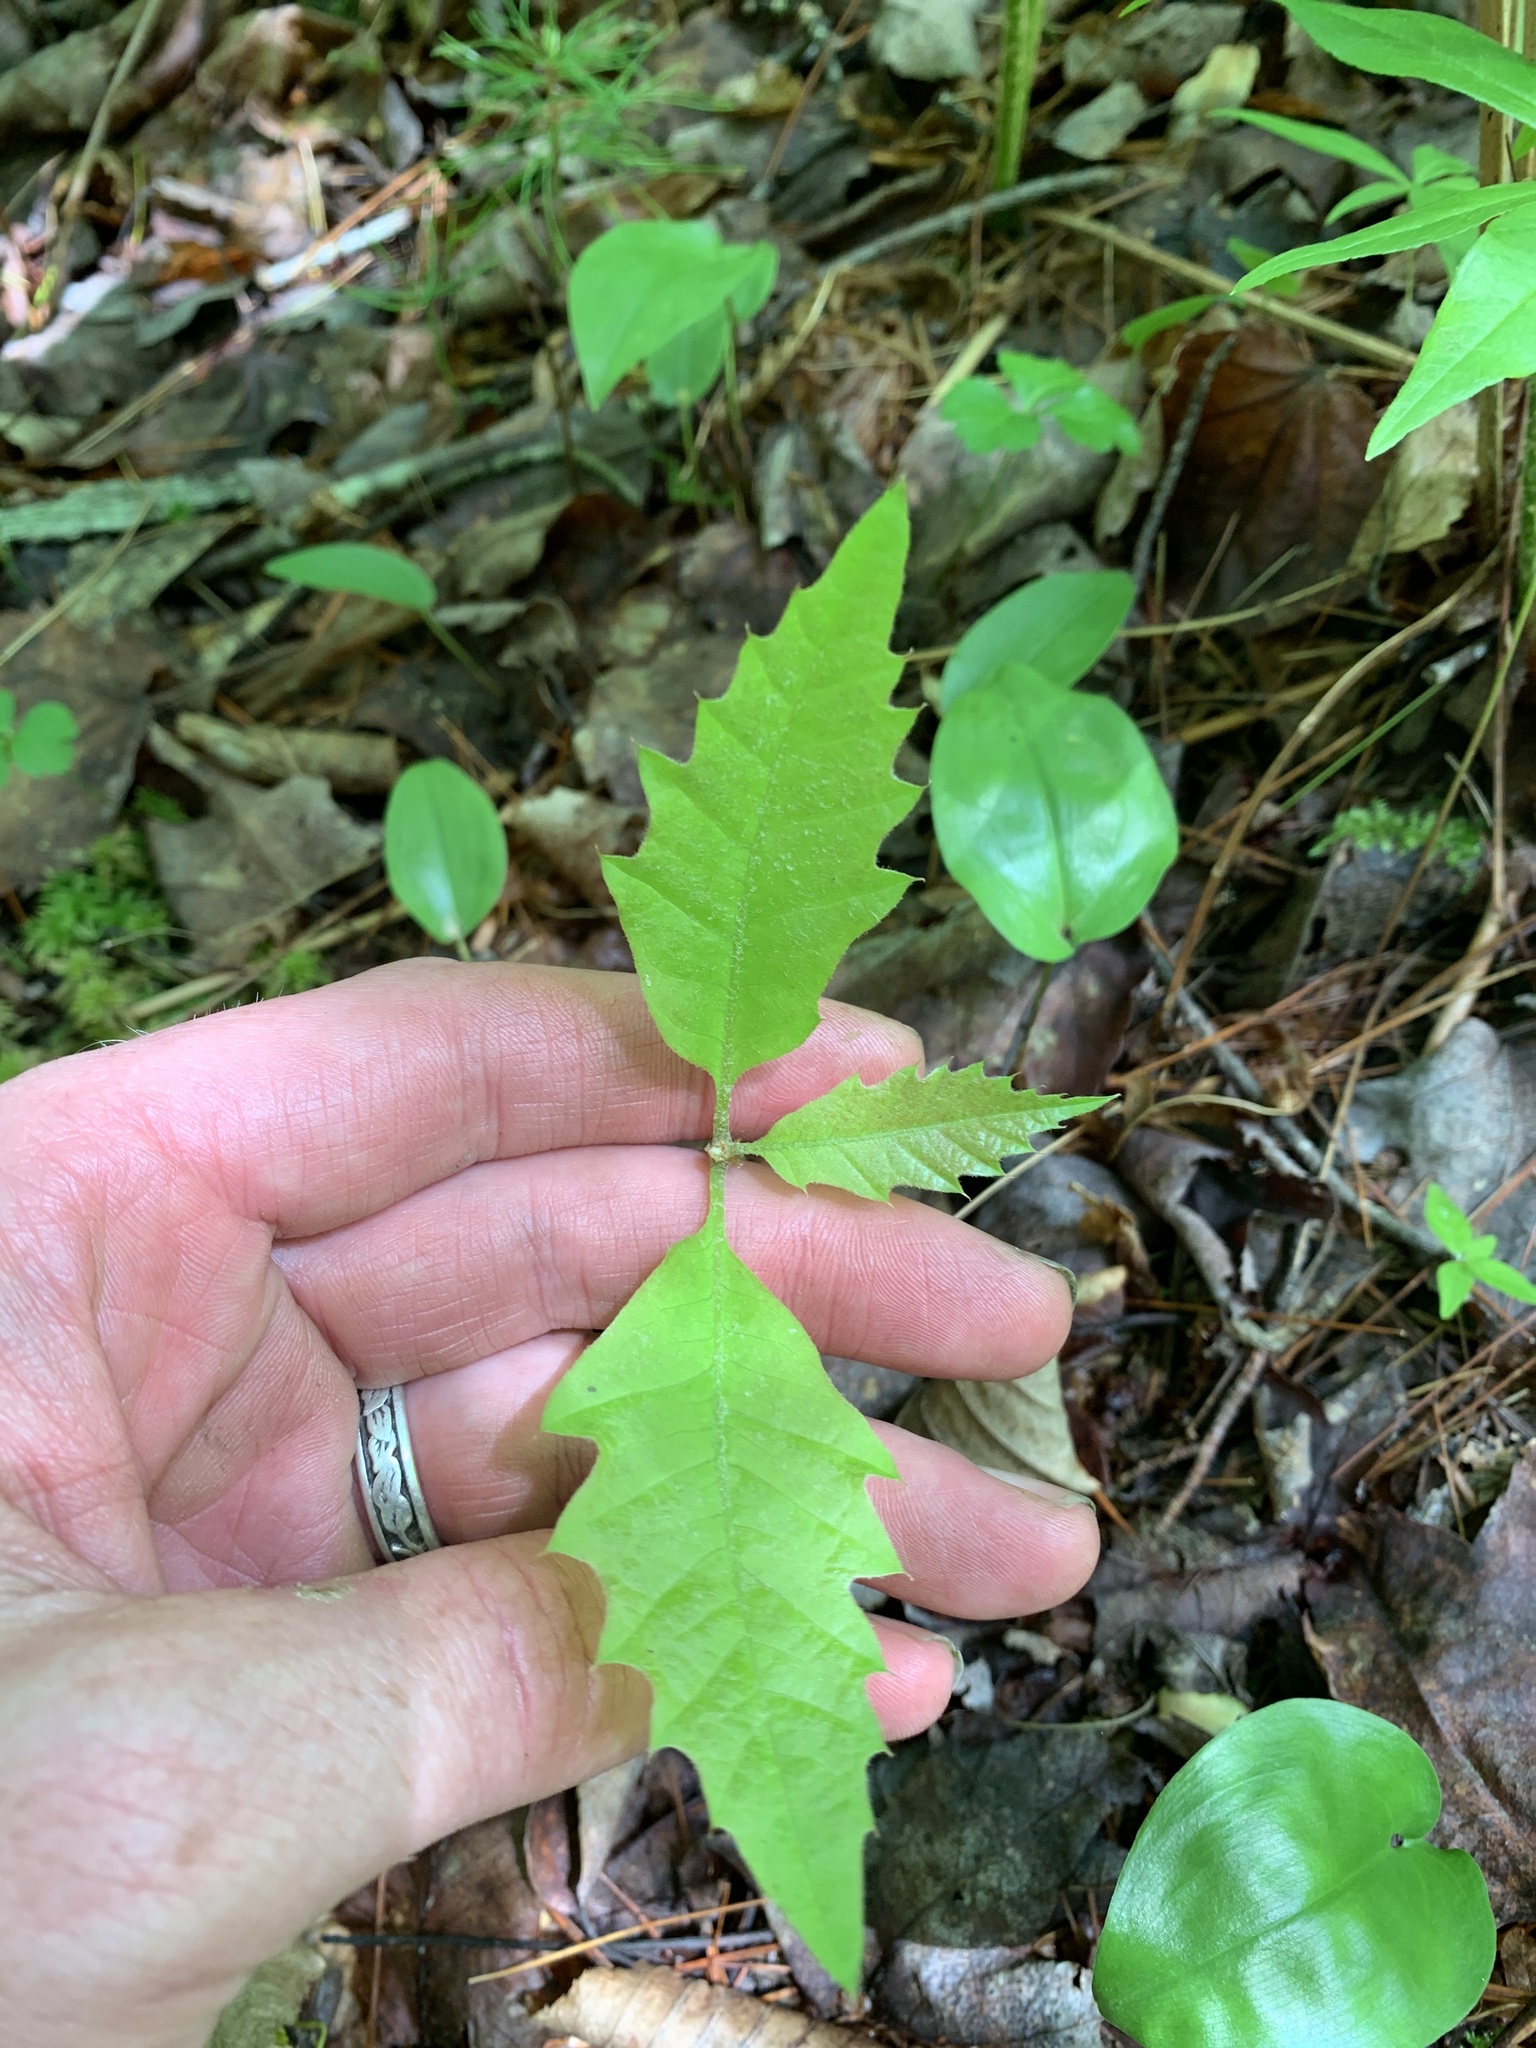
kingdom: Plantae
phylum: Tracheophyta
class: Magnoliopsida
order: Fagales
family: Fagaceae
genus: Quercus
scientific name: Quercus rubra
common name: Red oak
